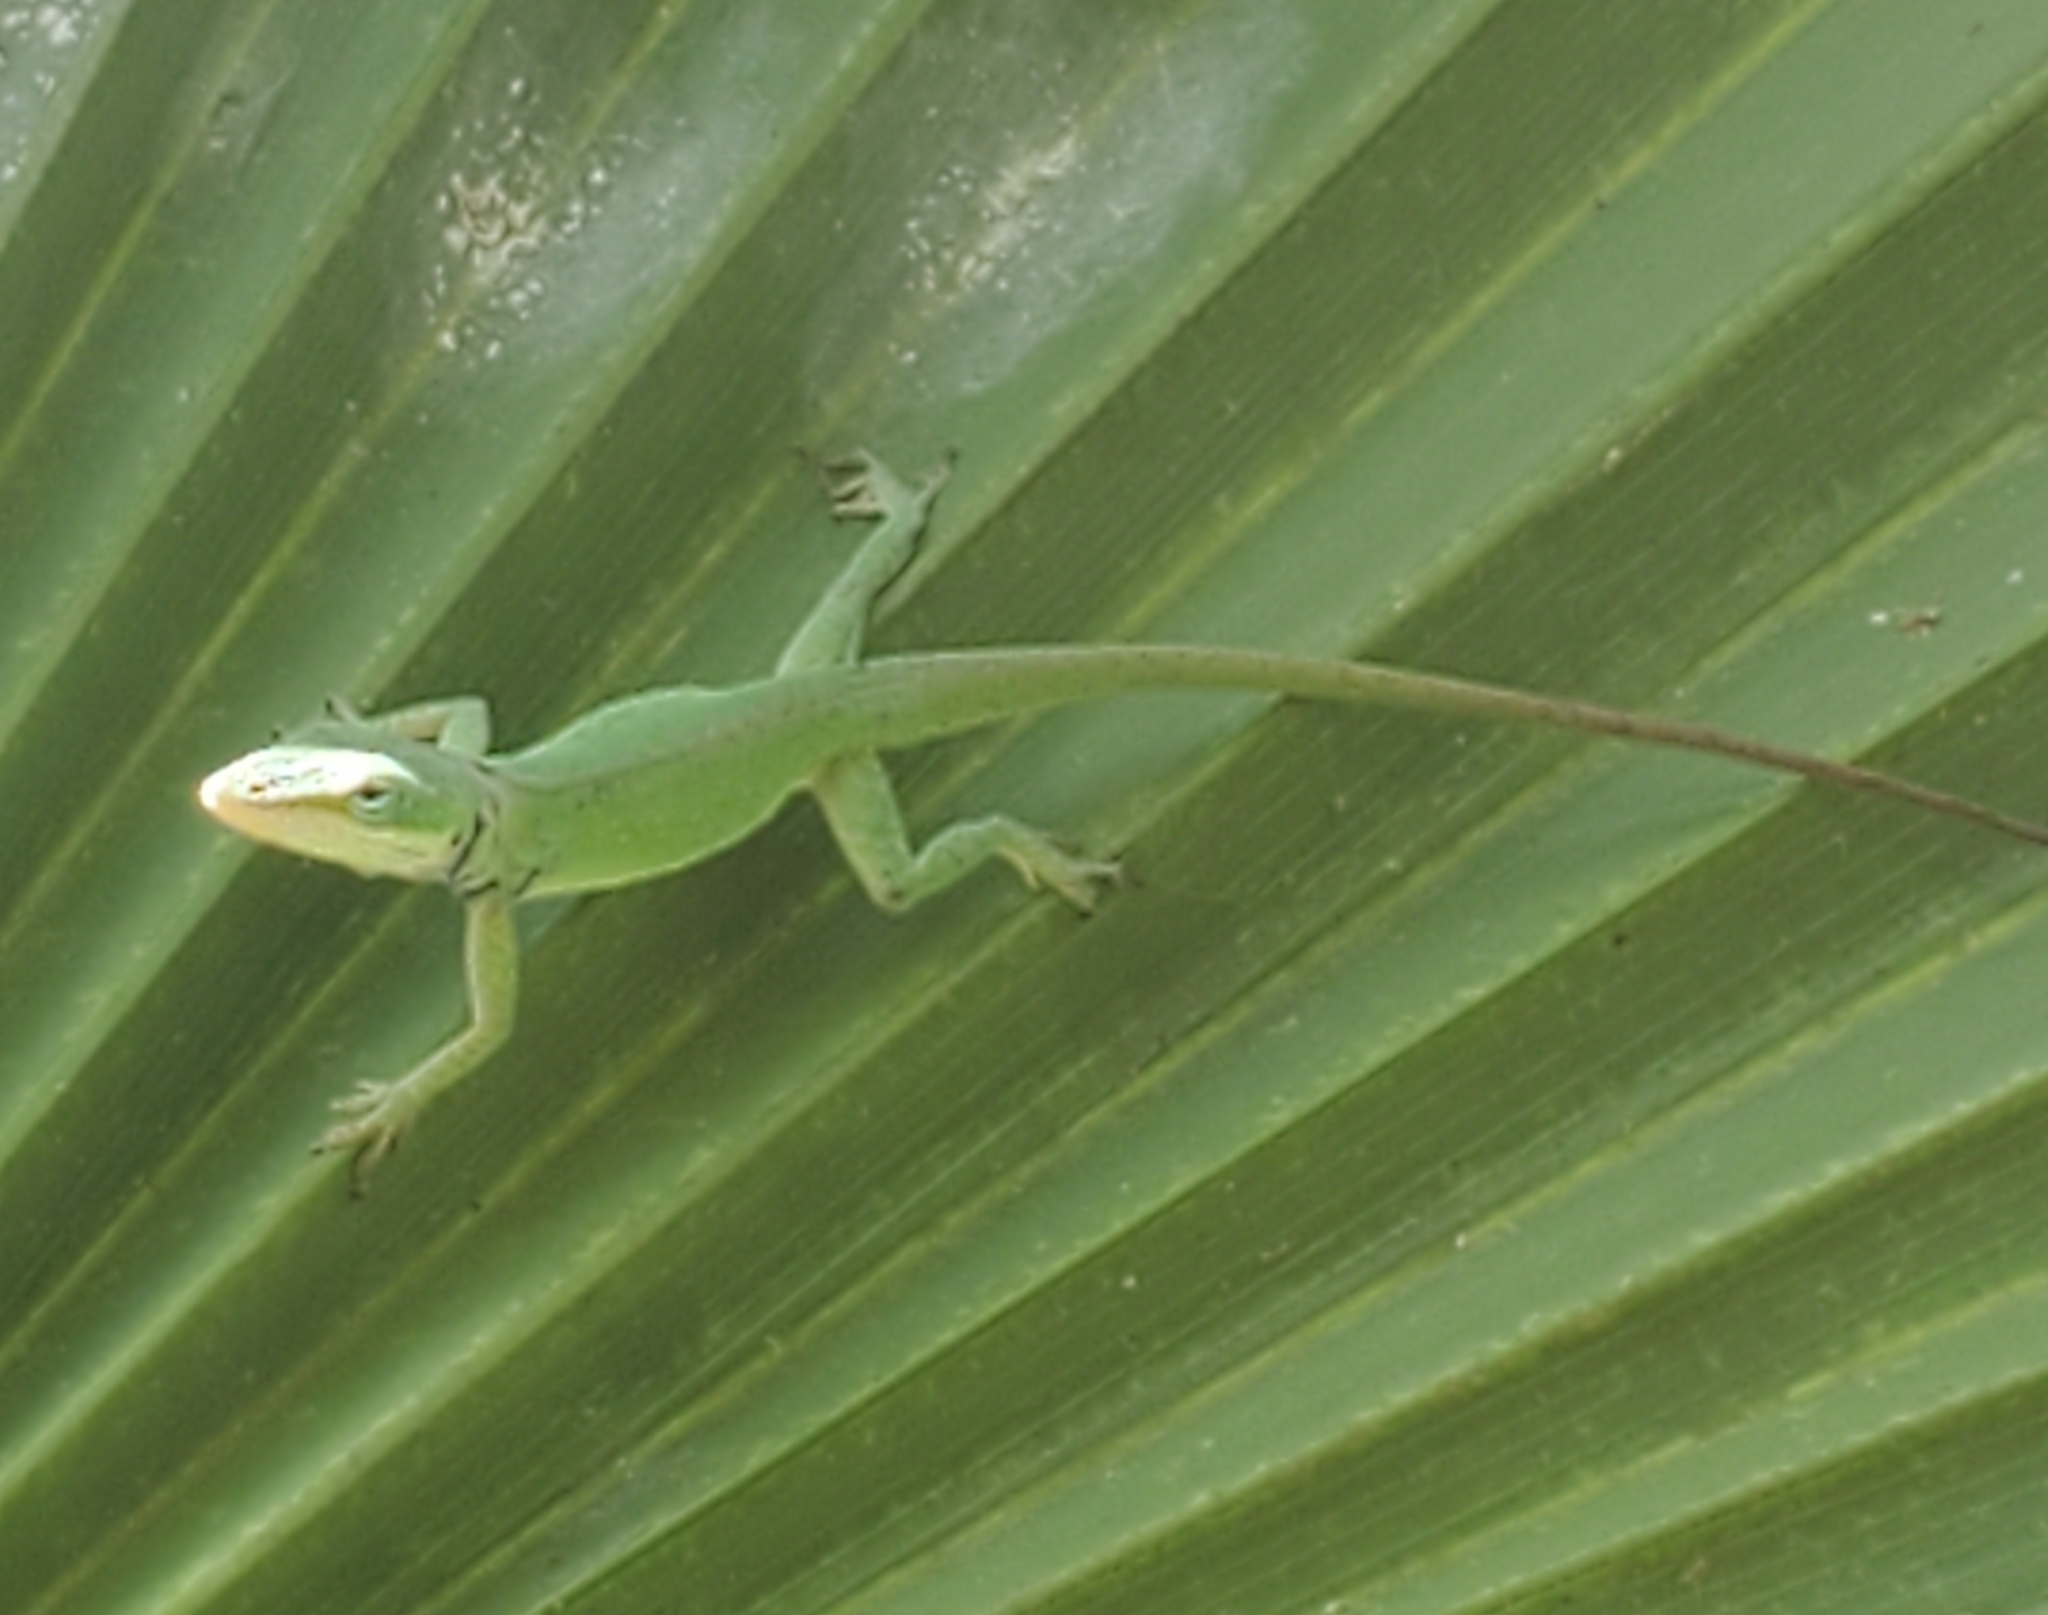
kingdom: Animalia
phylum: Chordata
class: Squamata
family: Dactyloidae
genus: Anolis
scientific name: Anolis carolinensis
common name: Green anole
